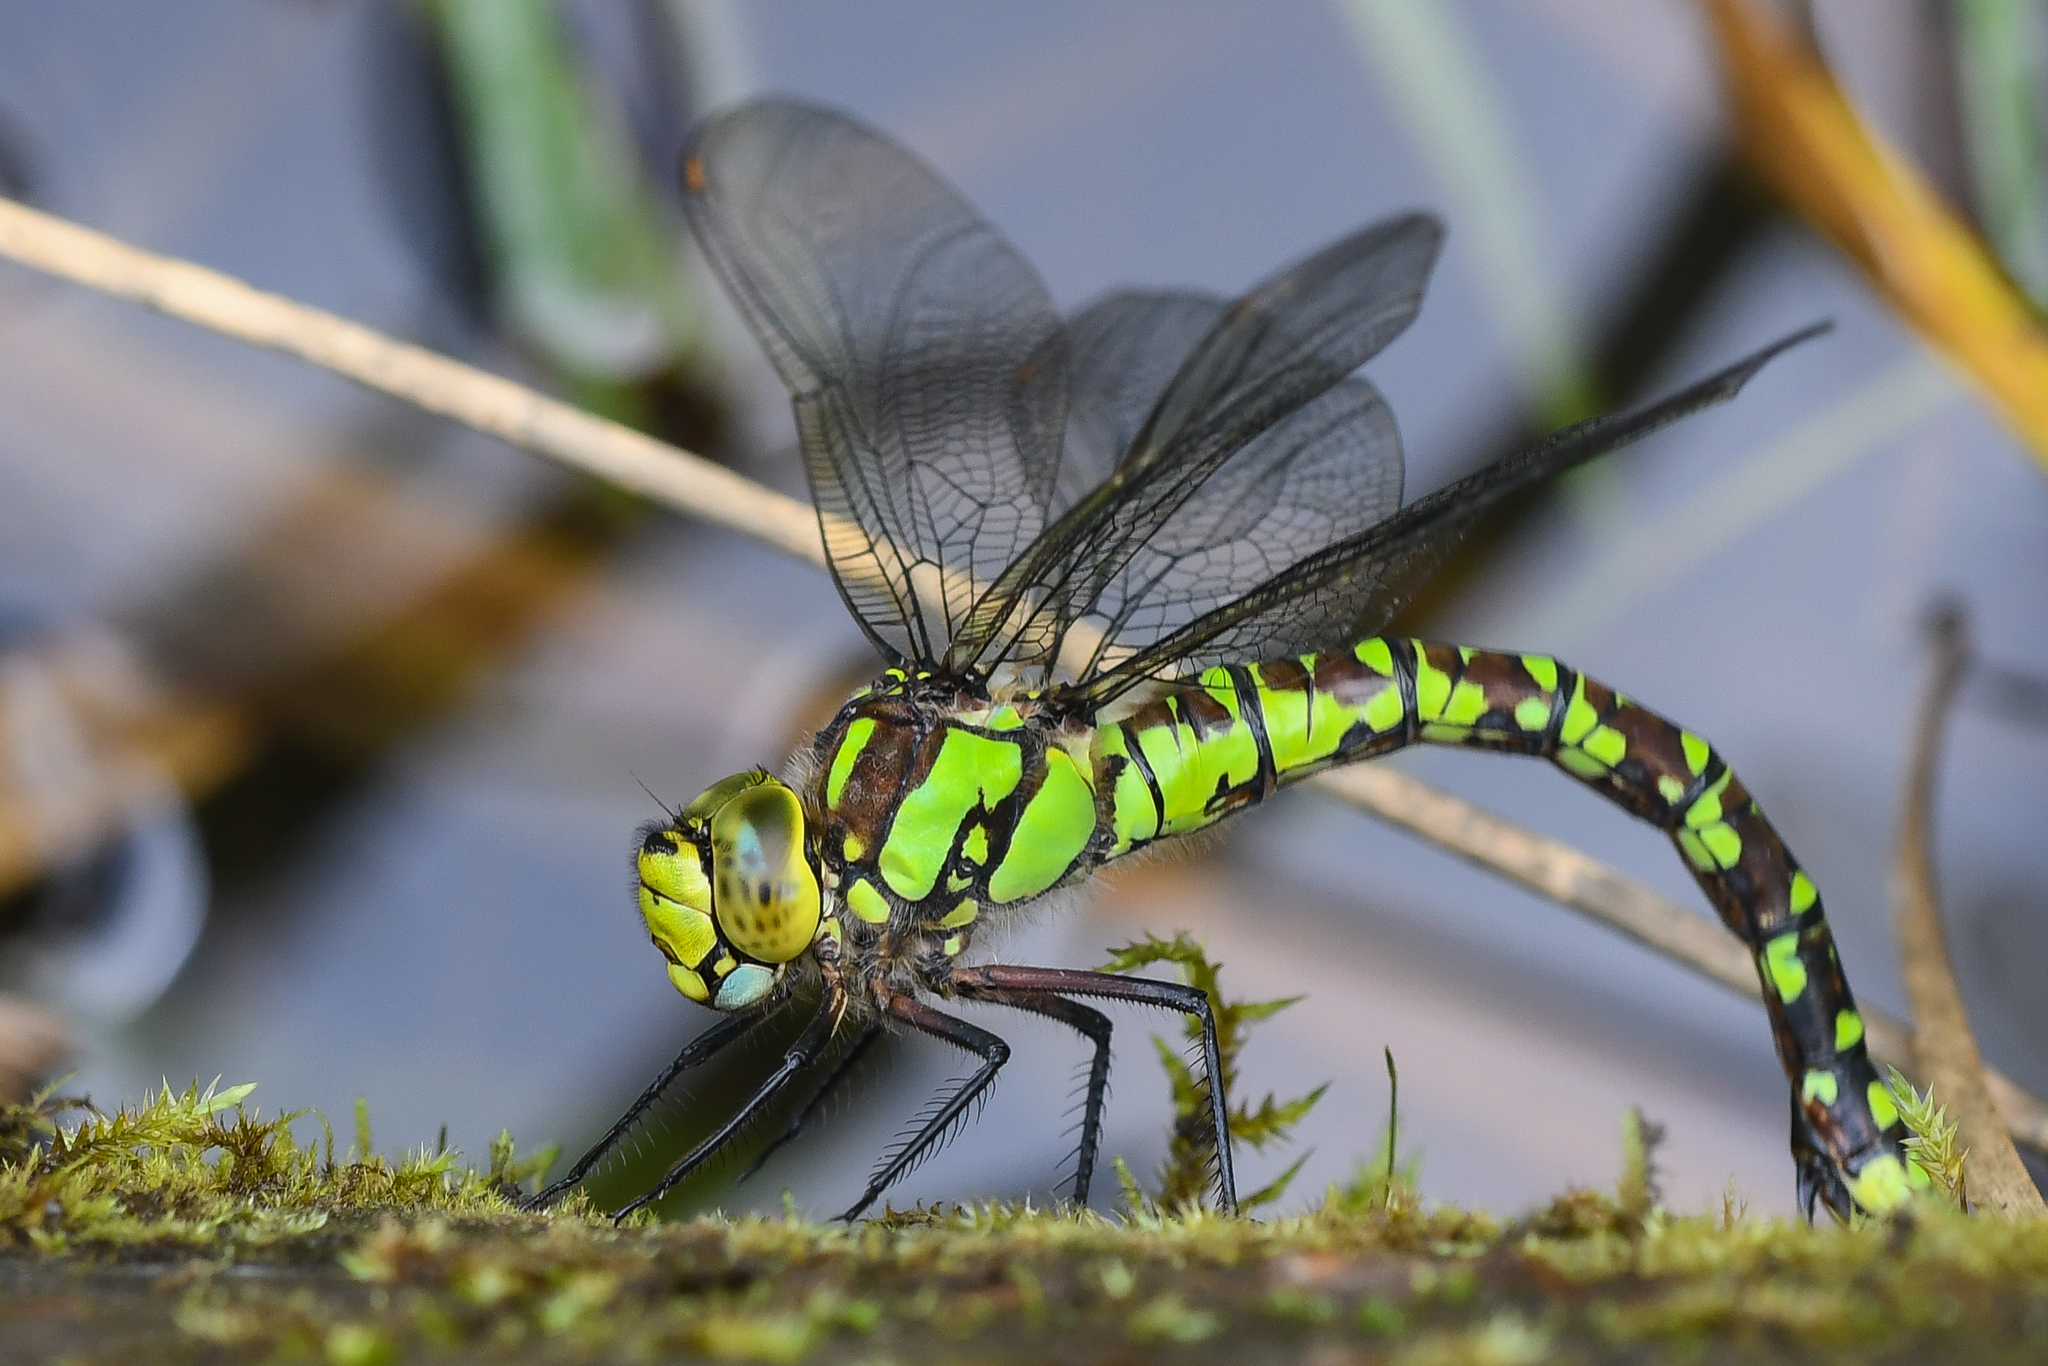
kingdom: Animalia
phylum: Arthropoda
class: Insecta
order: Odonata
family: Aeshnidae
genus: Aeshna
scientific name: Aeshna cyanea
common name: Southern hawker
